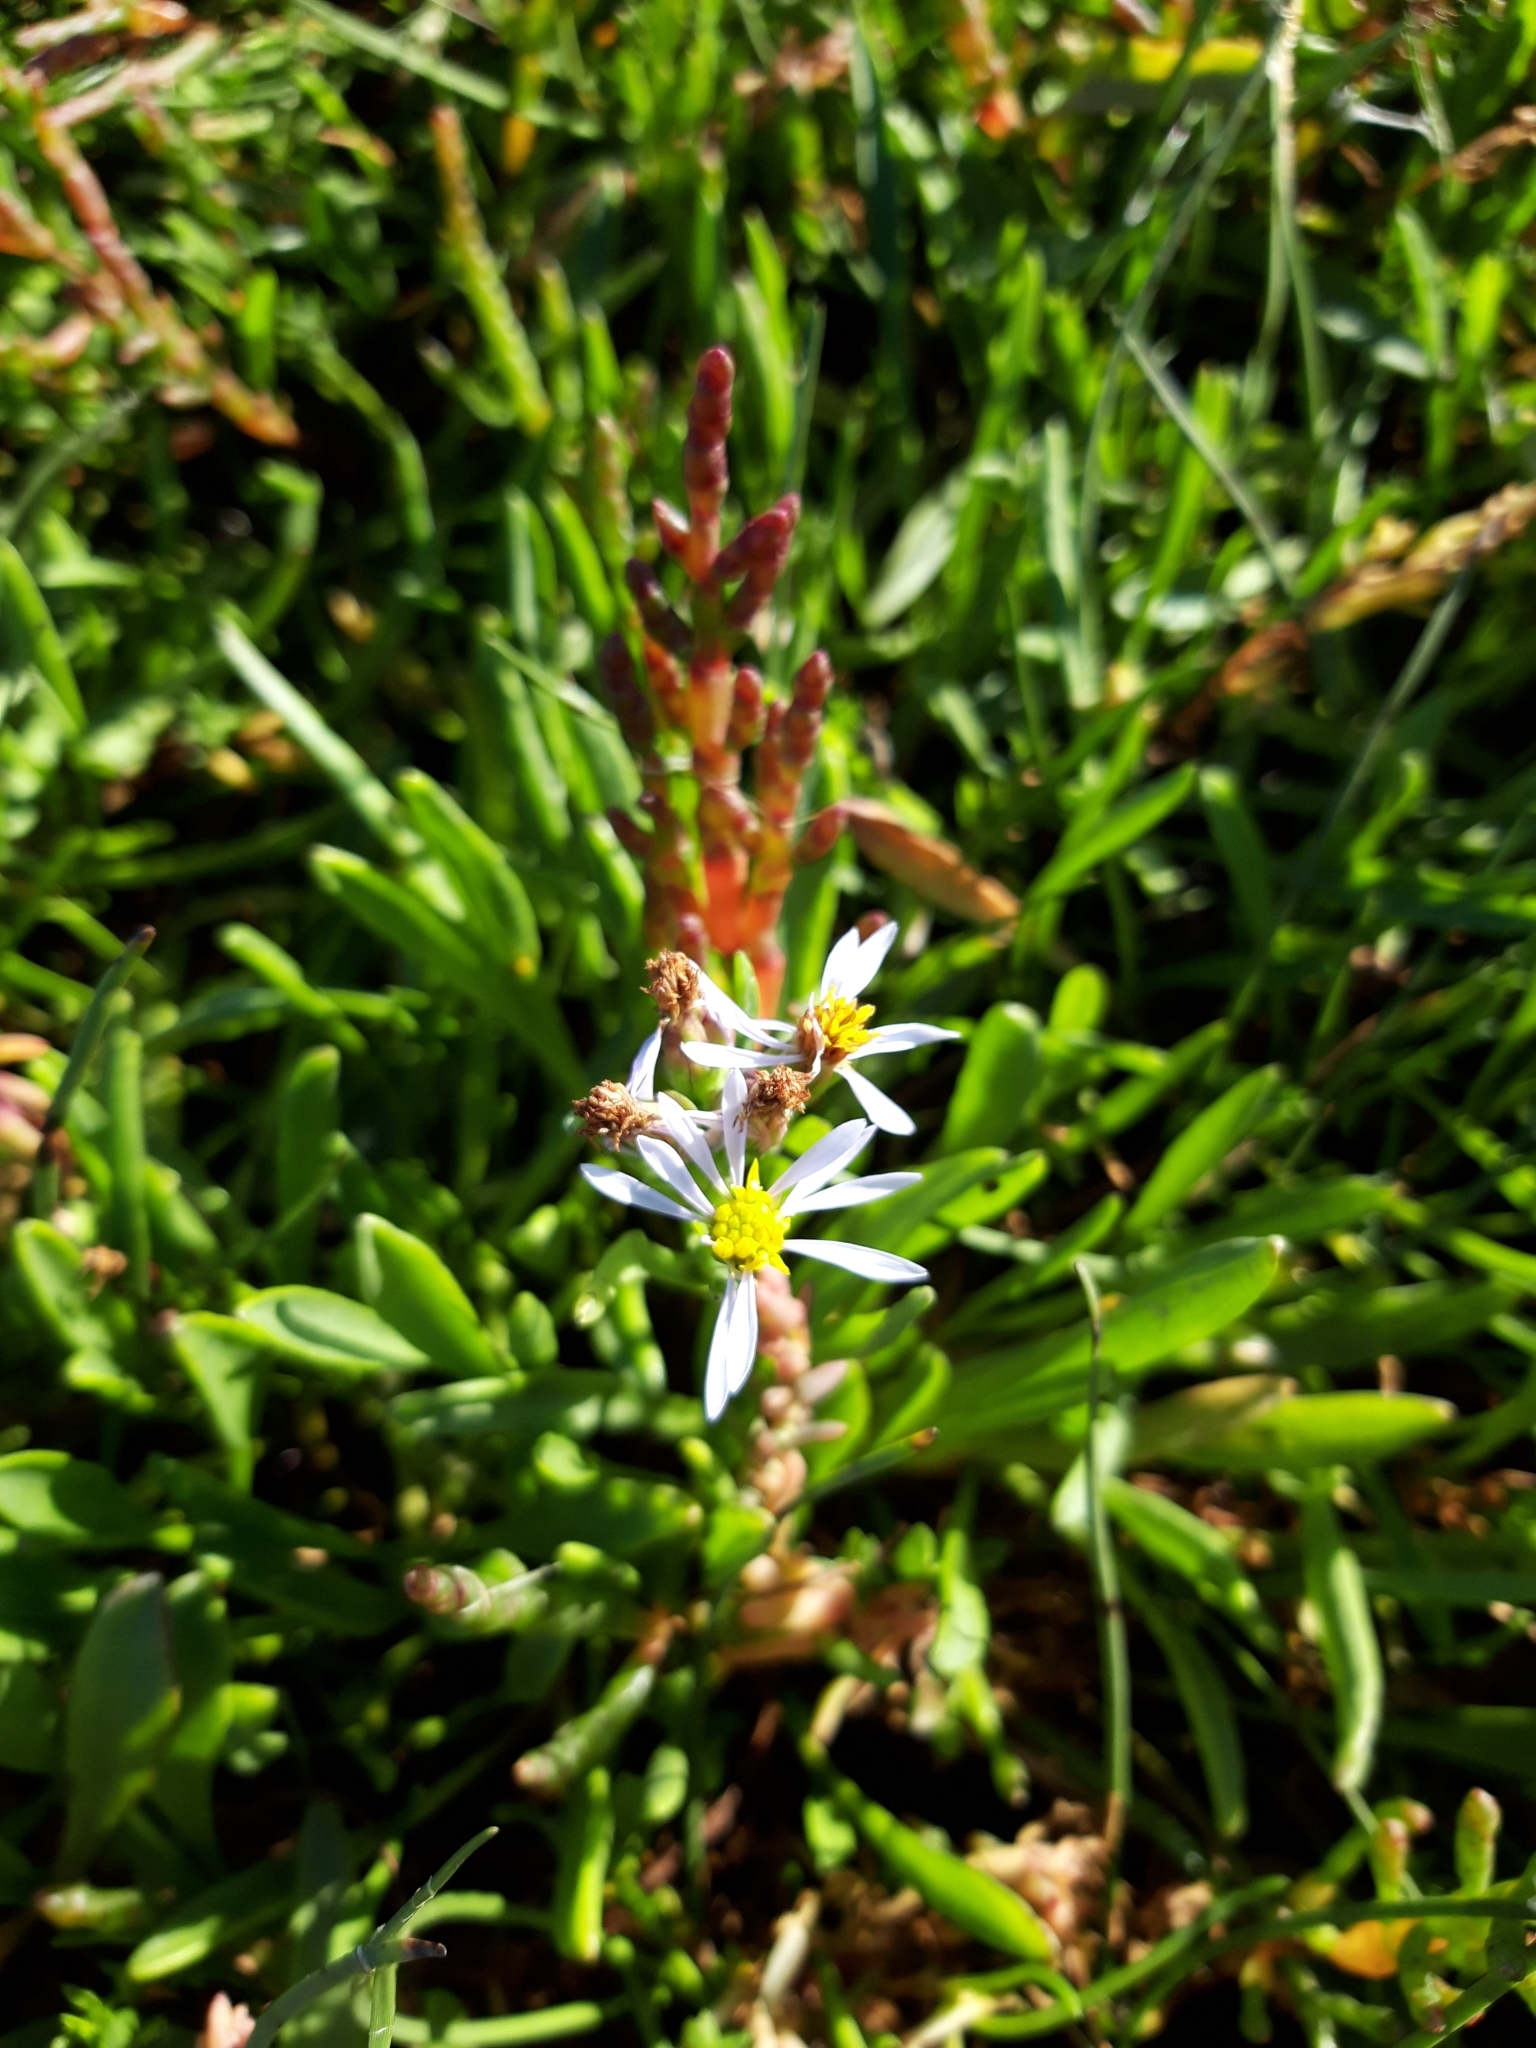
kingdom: Plantae
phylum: Tracheophyta
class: Magnoliopsida
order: Asterales
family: Asteraceae
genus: Tripolium
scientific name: Tripolium pannonicum
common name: Sea aster
